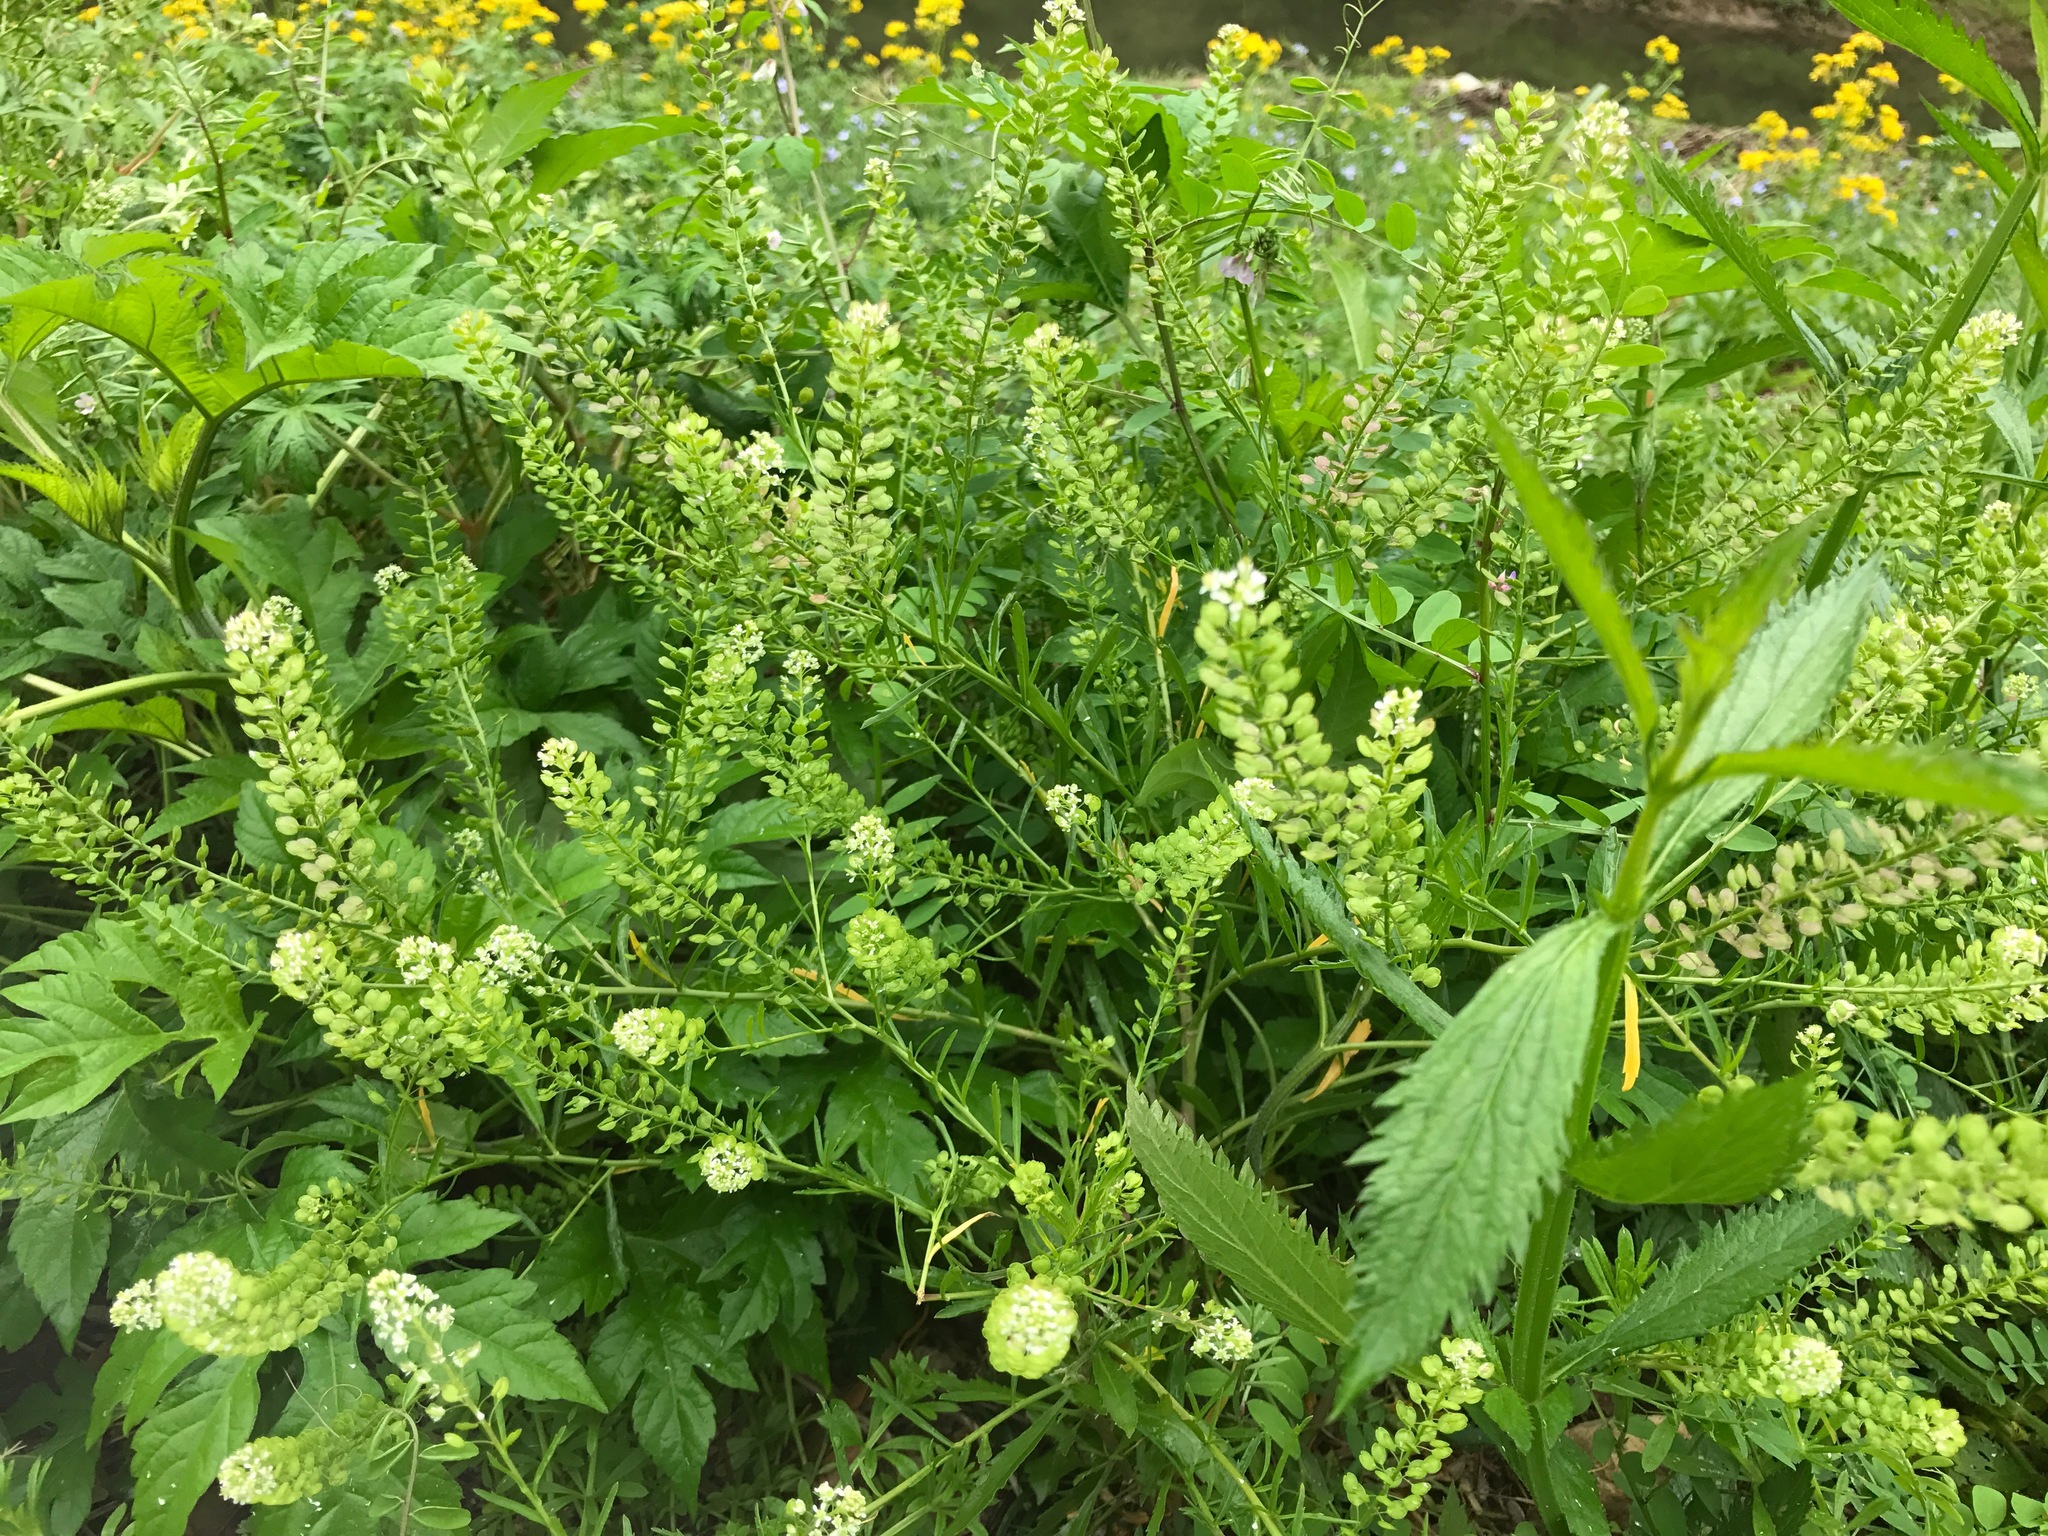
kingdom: Plantae
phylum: Tracheophyta
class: Magnoliopsida
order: Brassicales
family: Brassicaceae
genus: Lepidium
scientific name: Lepidium virginicum
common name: Least pepperwort
